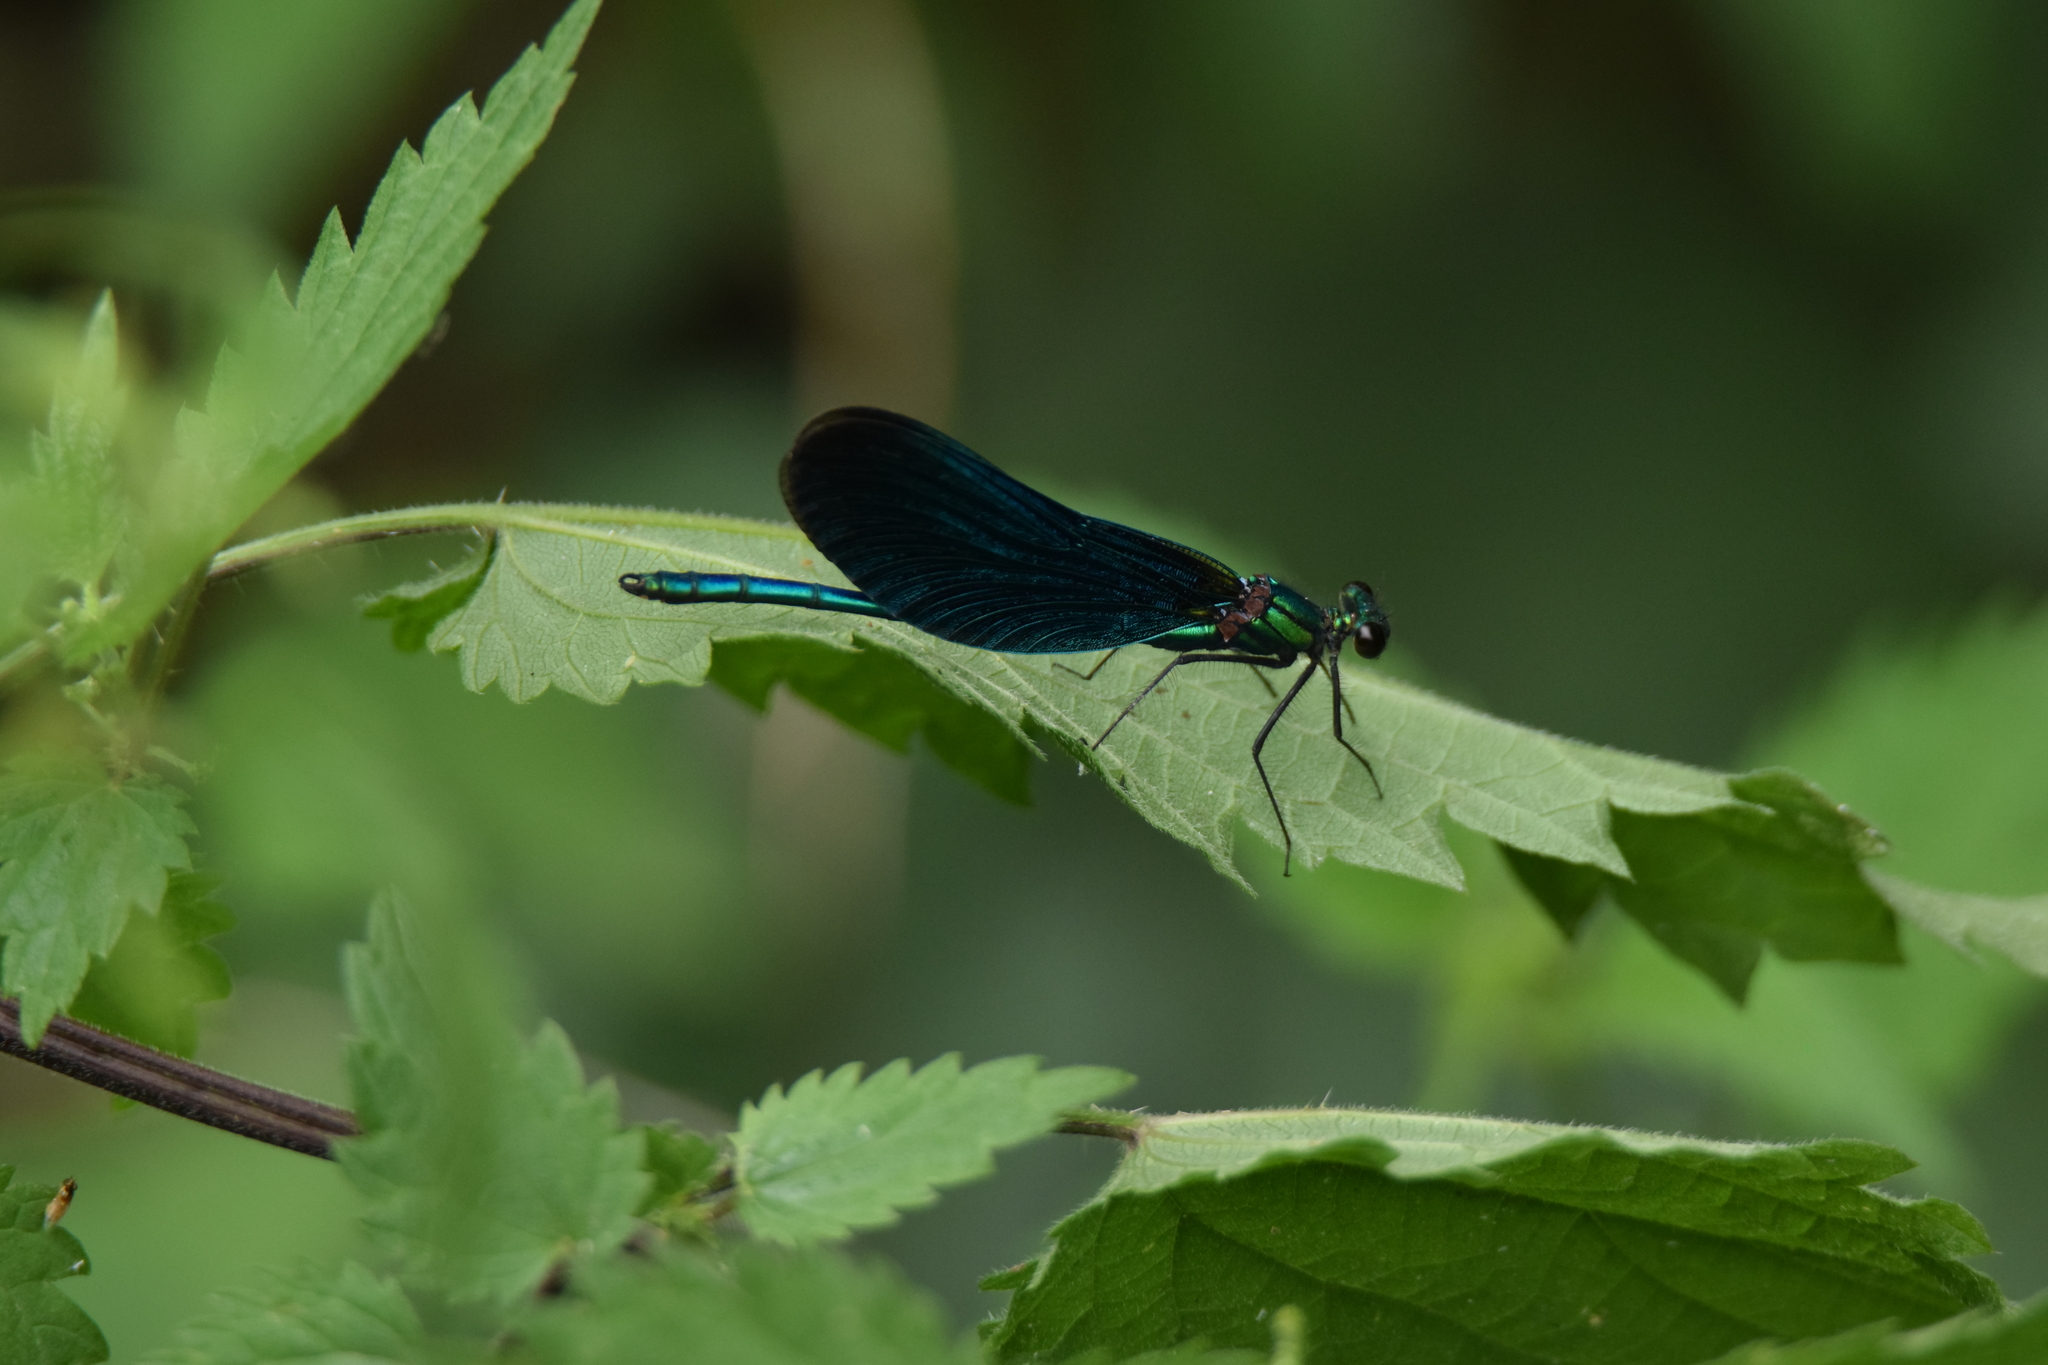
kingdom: Animalia
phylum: Arthropoda
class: Insecta
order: Odonata
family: Calopterygidae
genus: Calopteryx
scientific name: Calopteryx virgo
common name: Beautiful demoiselle
